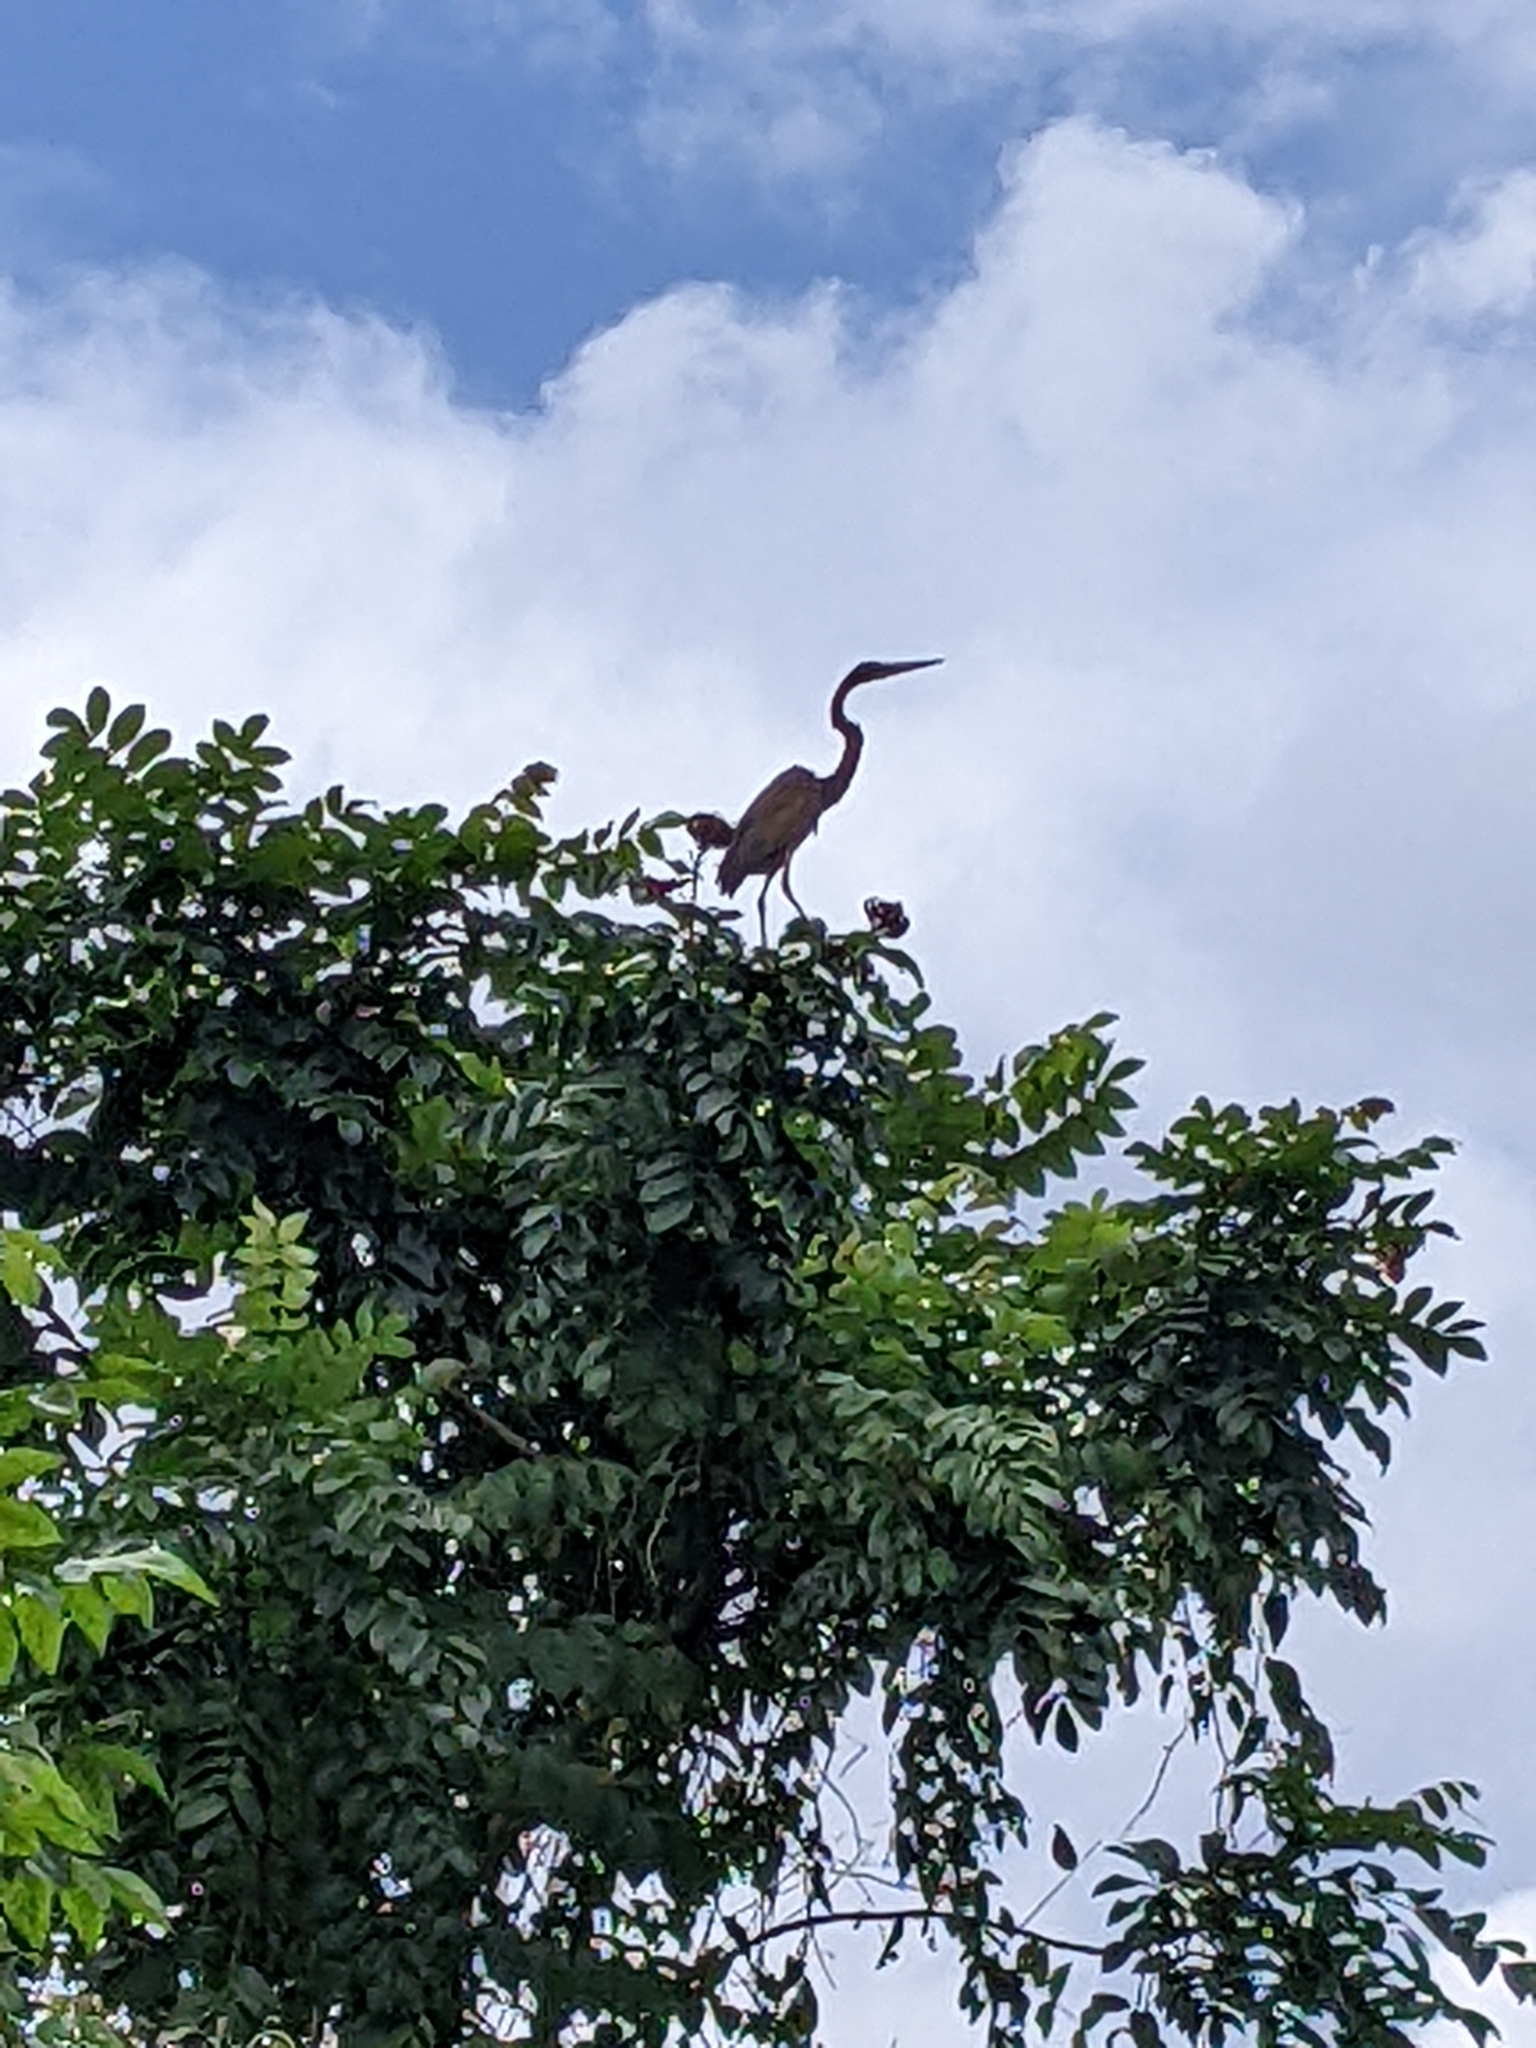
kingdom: Animalia
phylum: Chordata
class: Aves
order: Pelecaniformes
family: Ardeidae
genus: Ardea
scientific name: Ardea purpurea
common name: Purple heron
